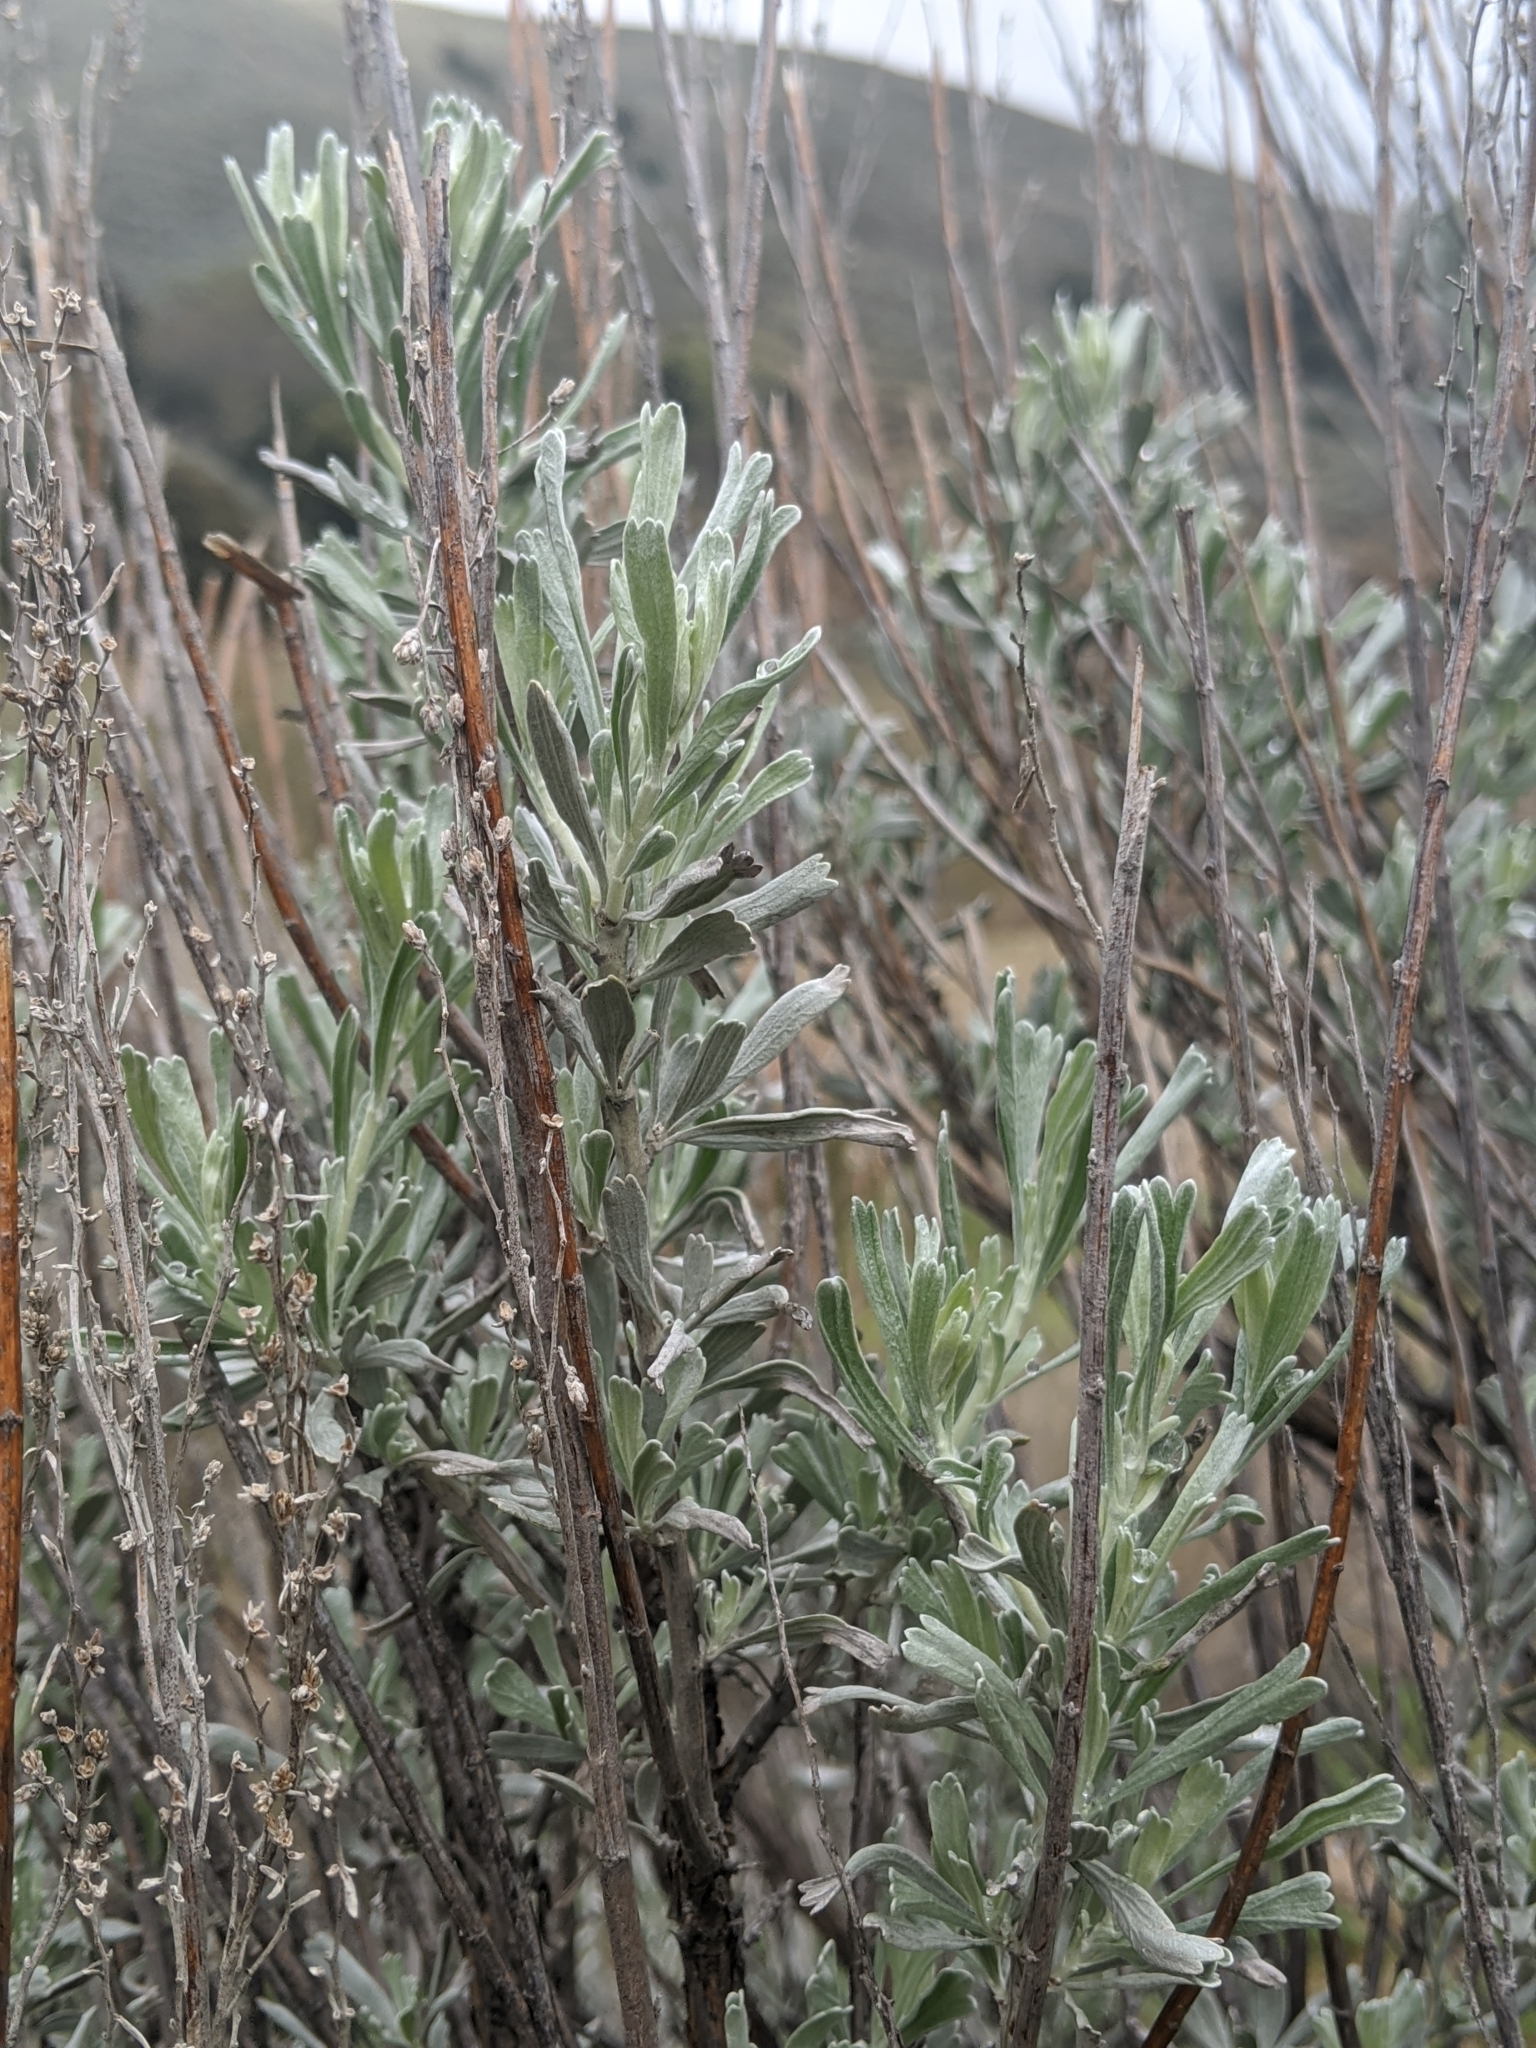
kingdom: Plantae
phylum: Tracheophyta
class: Magnoliopsida
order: Asterales
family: Asteraceae
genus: Artemisia
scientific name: Artemisia tridentata
